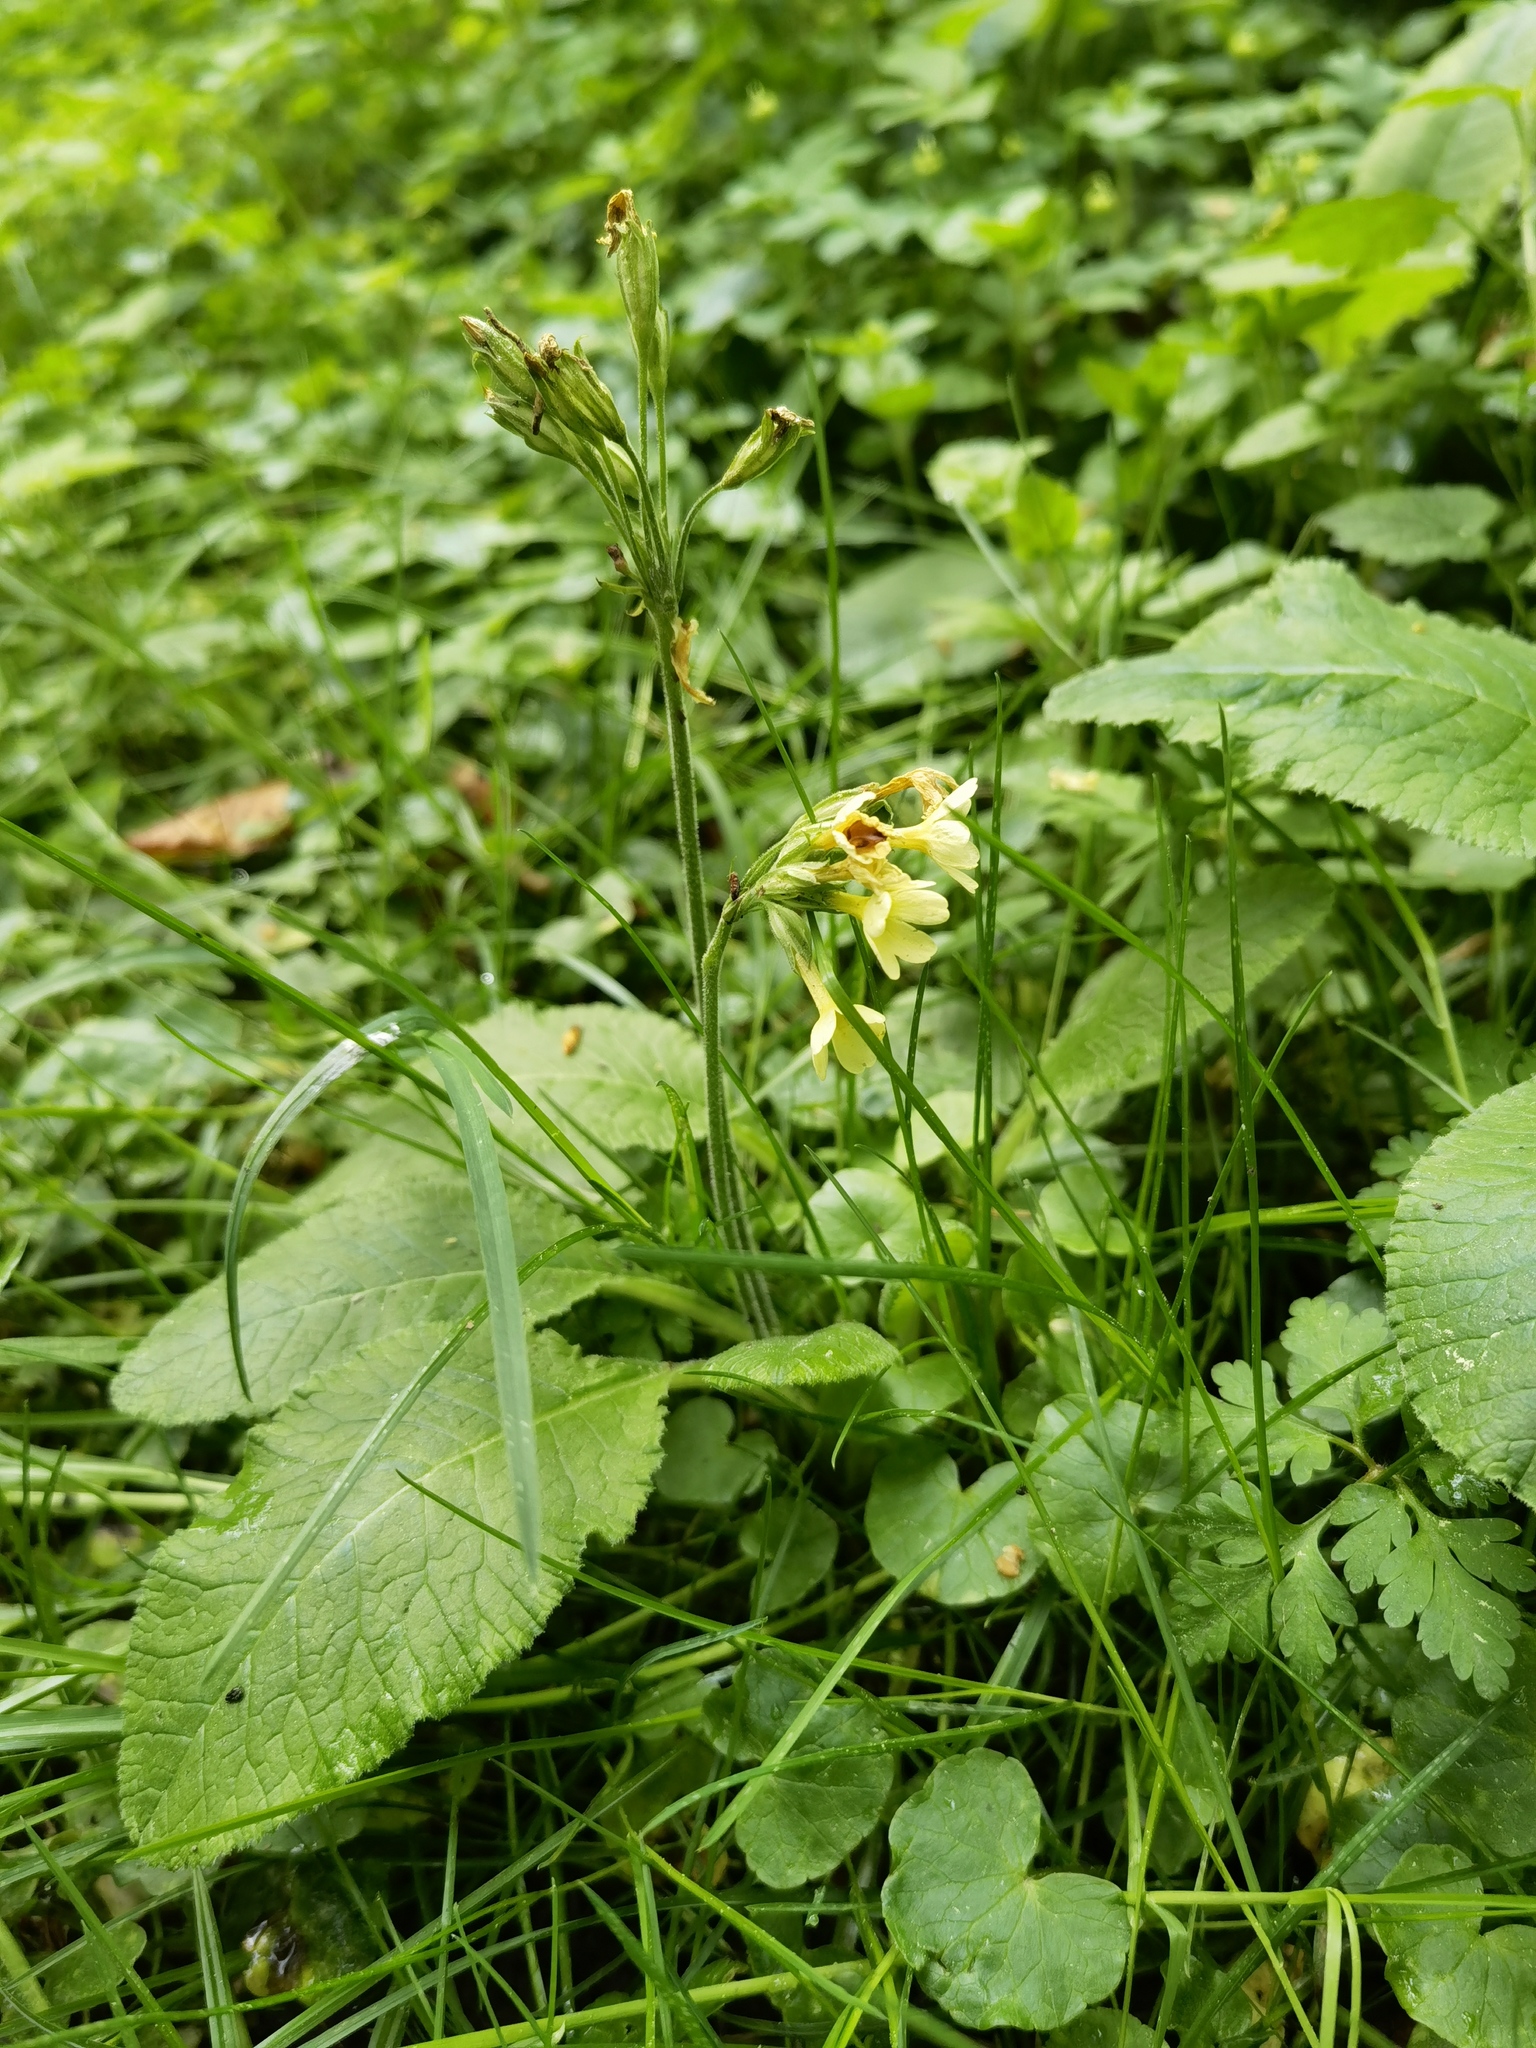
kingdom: Plantae
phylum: Tracheophyta
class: Magnoliopsida
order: Ericales
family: Primulaceae
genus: Primula
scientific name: Primula elatior
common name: Oxlip
